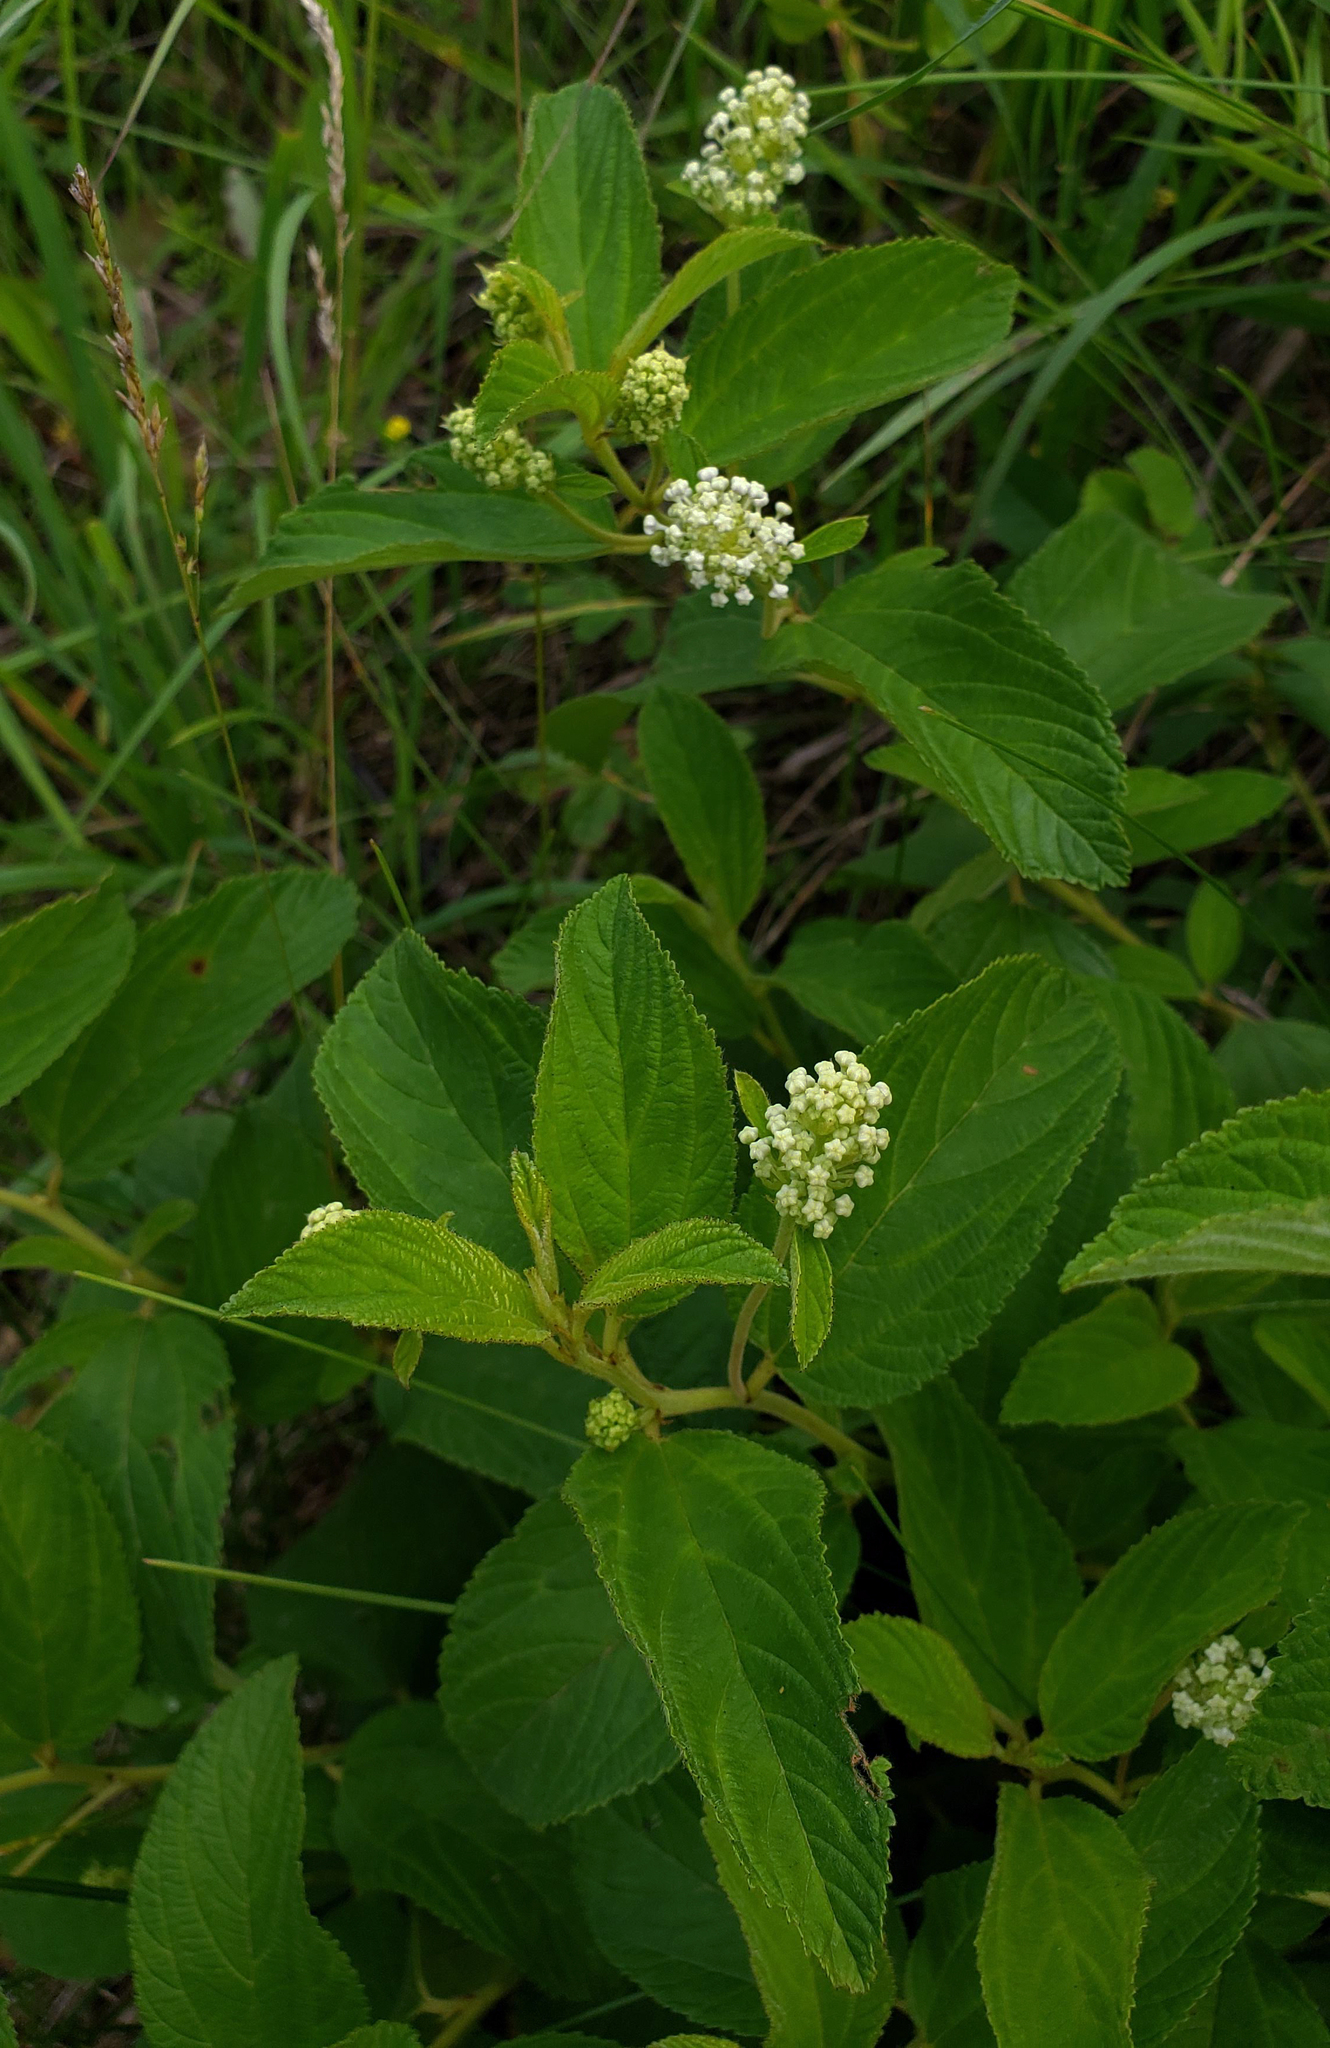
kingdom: Plantae
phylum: Tracheophyta
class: Magnoliopsida
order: Rosales
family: Rhamnaceae
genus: Ceanothus
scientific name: Ceanothus americanus
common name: Redroot
